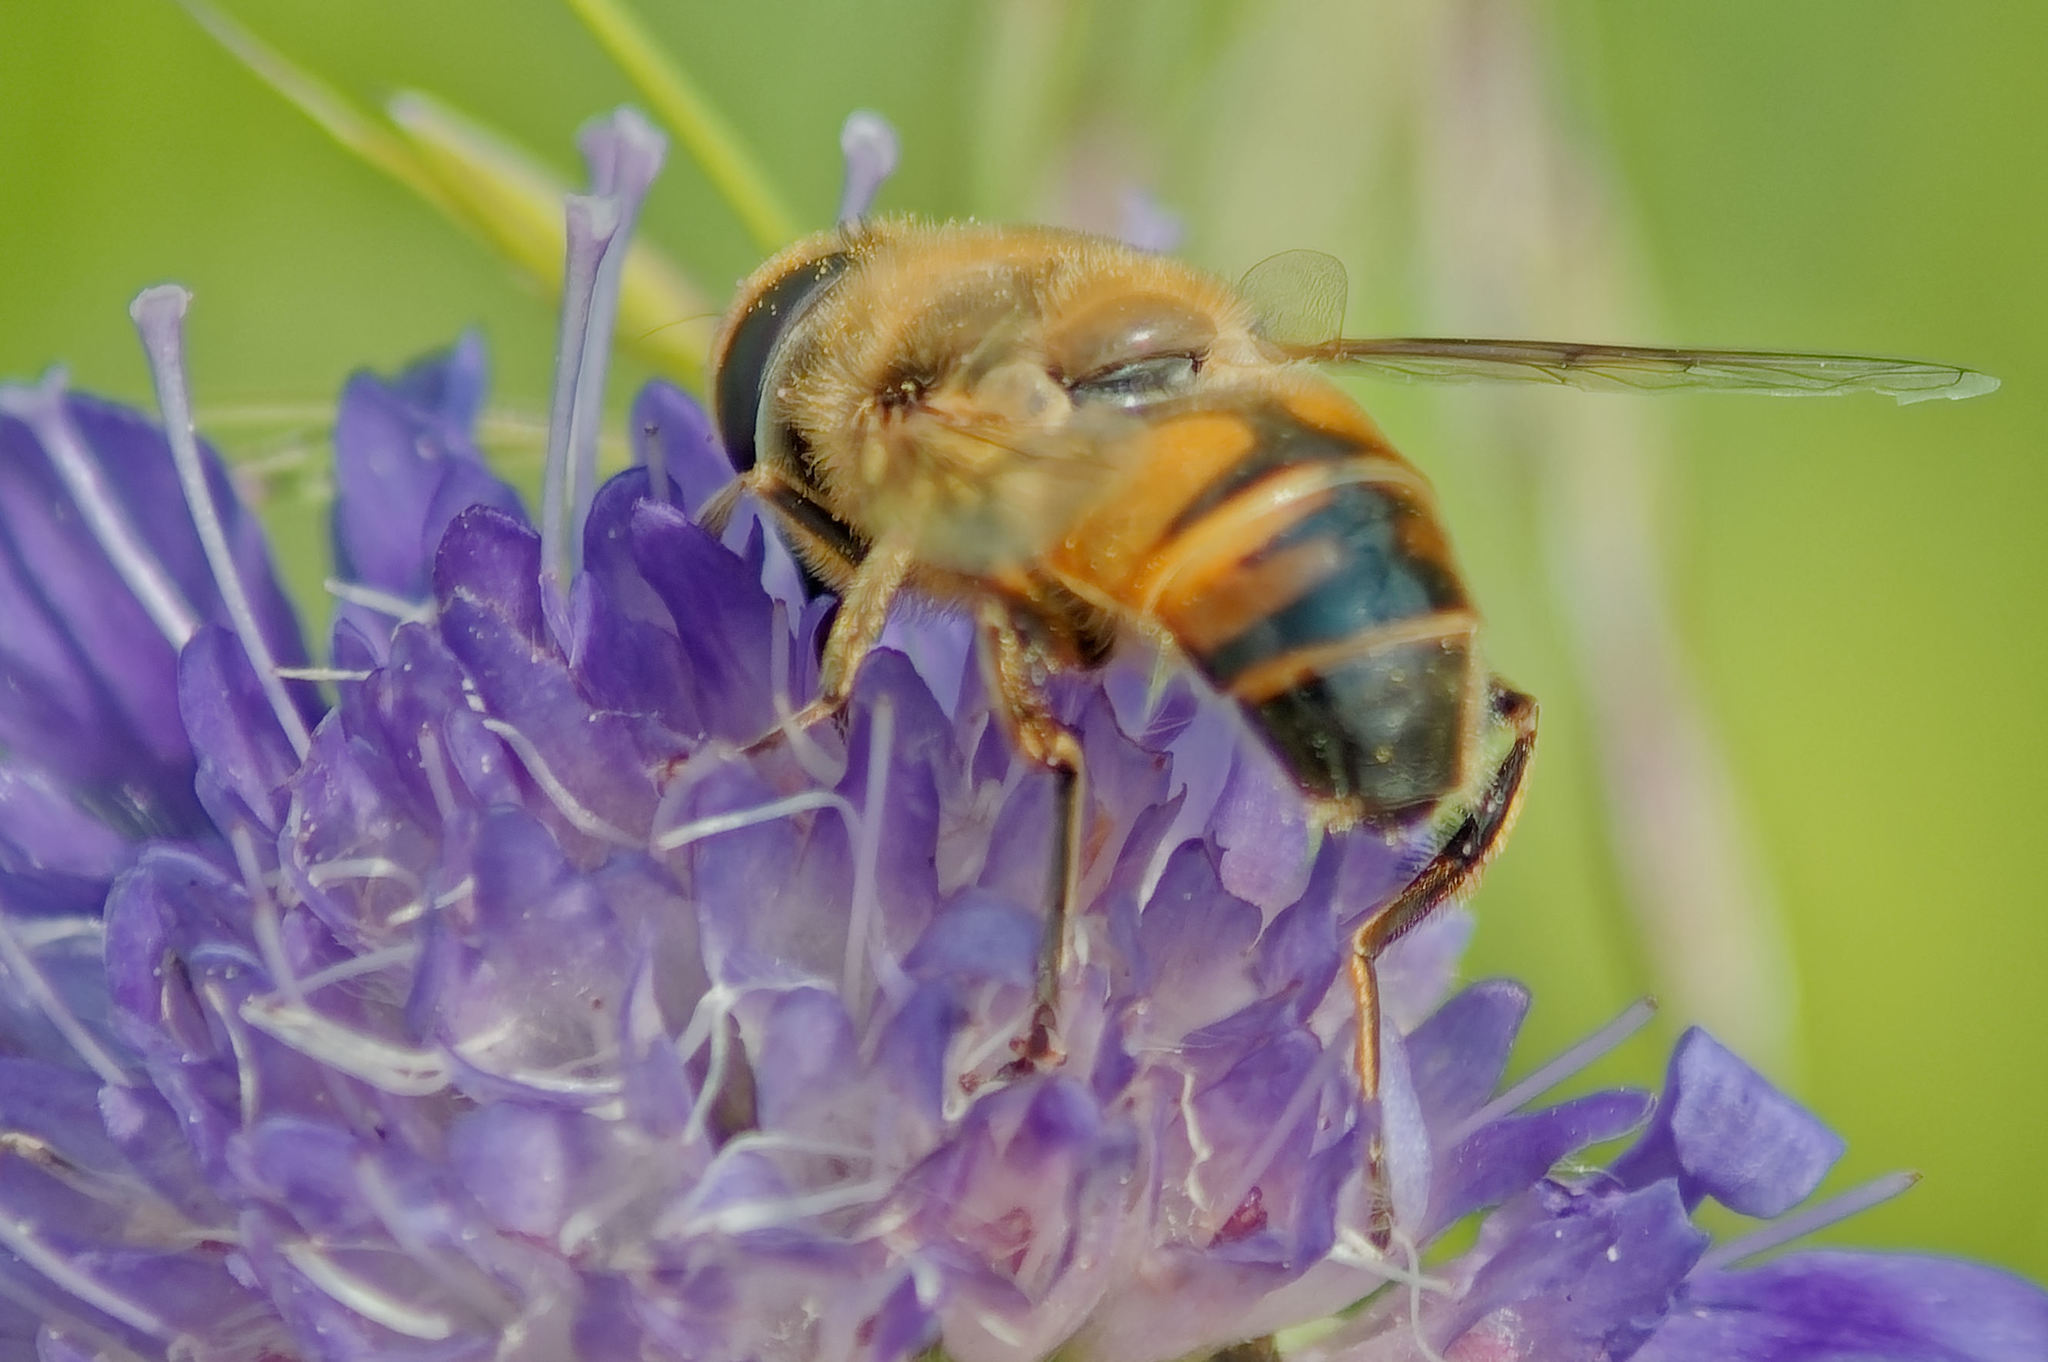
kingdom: Animalia
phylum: Arthropoda
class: Insecta
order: Diptera
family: Syrphidae
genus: Eristalis
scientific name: Eristalis tenax
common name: Drone fly
